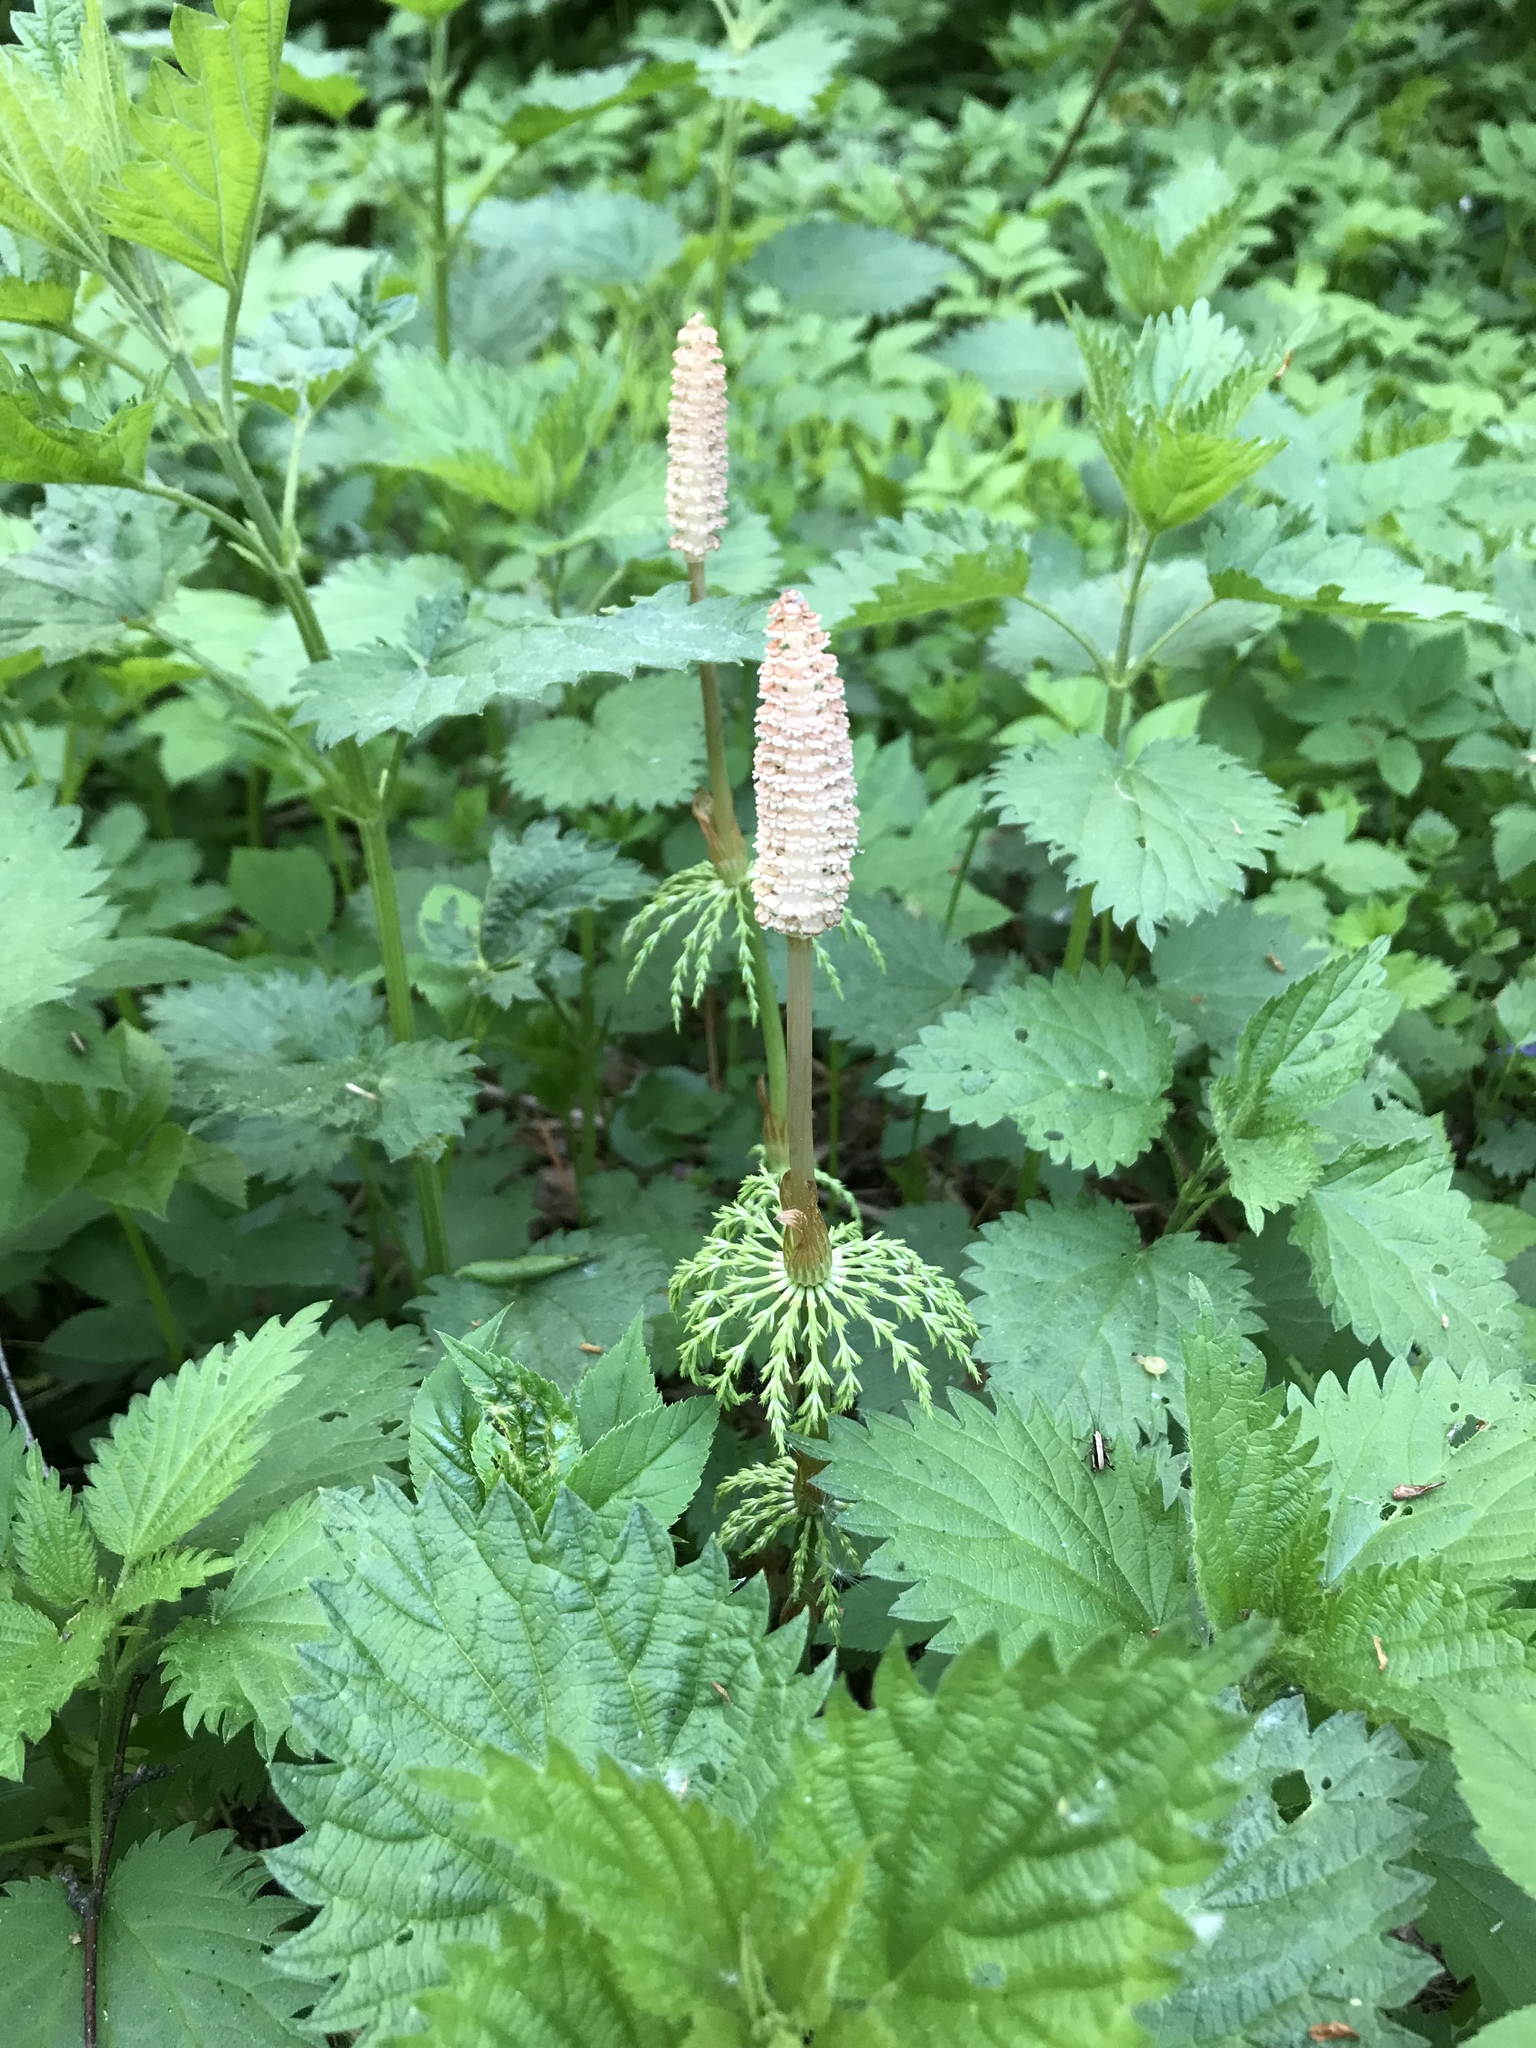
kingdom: Plantae
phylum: Tracheophyta
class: Polypodiopsida
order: Equisetales
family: Equisetaceae
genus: Equisetum
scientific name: Equisetum sylvaticum
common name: Wood horsetail
